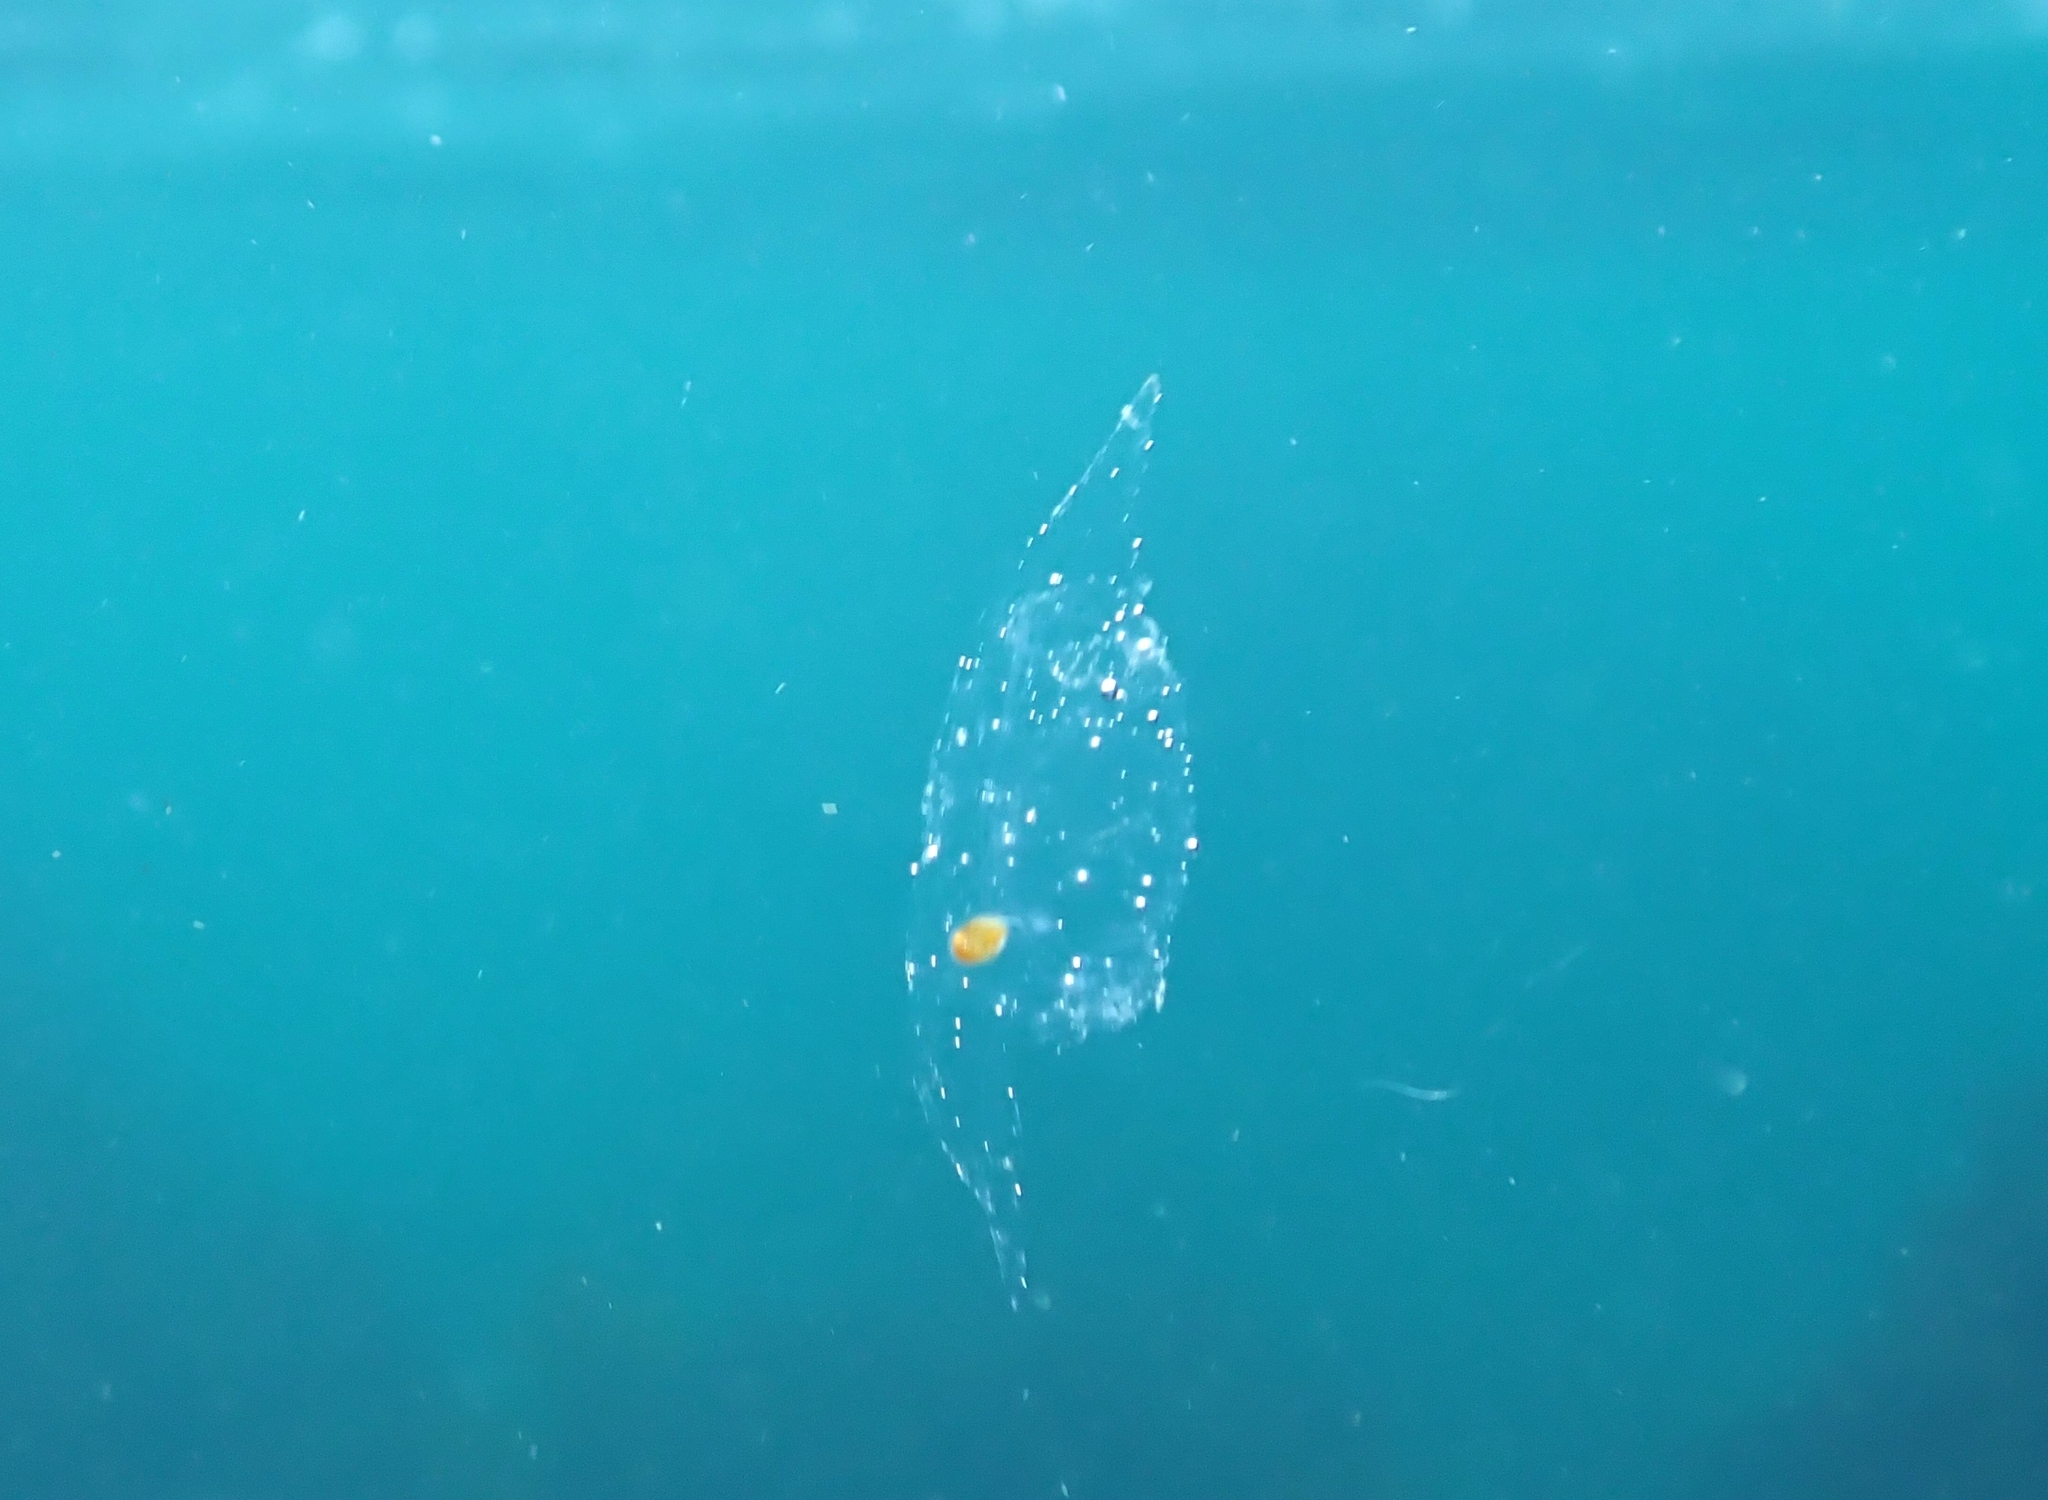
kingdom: Animalia
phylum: Chordata
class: Thaliacea
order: Salpida
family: Salpidae
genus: Soestia
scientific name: Soestia zonaria
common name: Deepsea solitary salp
